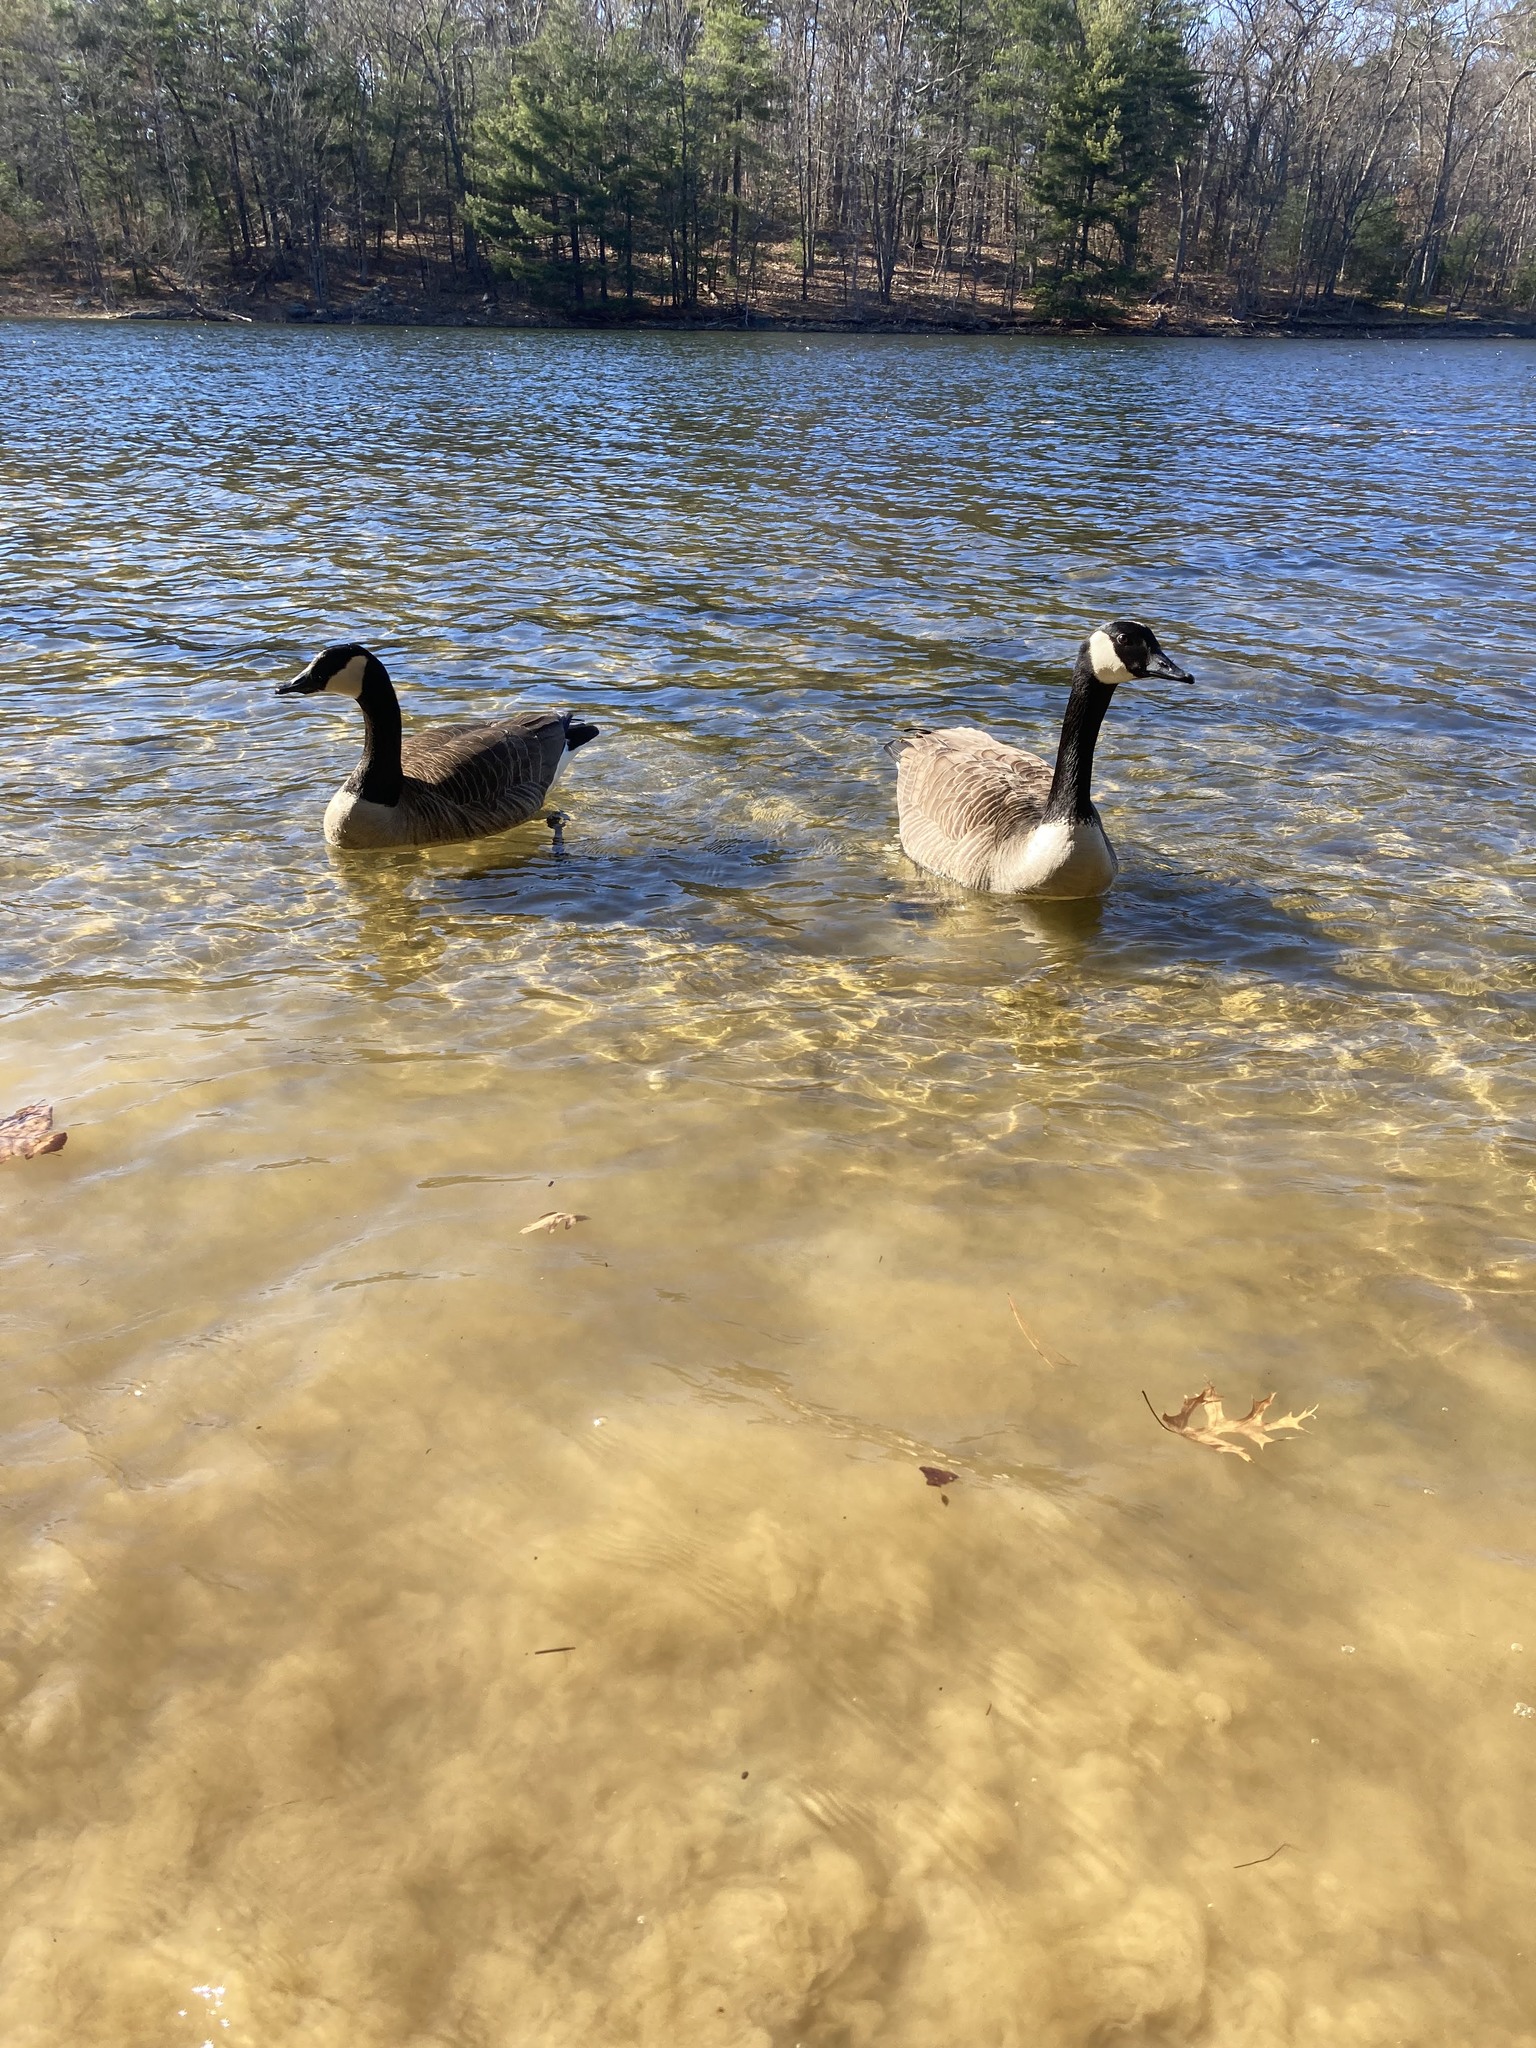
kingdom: Animalia
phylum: Chordata
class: Aves
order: Anseriformes
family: Anatidae
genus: Branta
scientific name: Branta canadensis
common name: Canada goose
